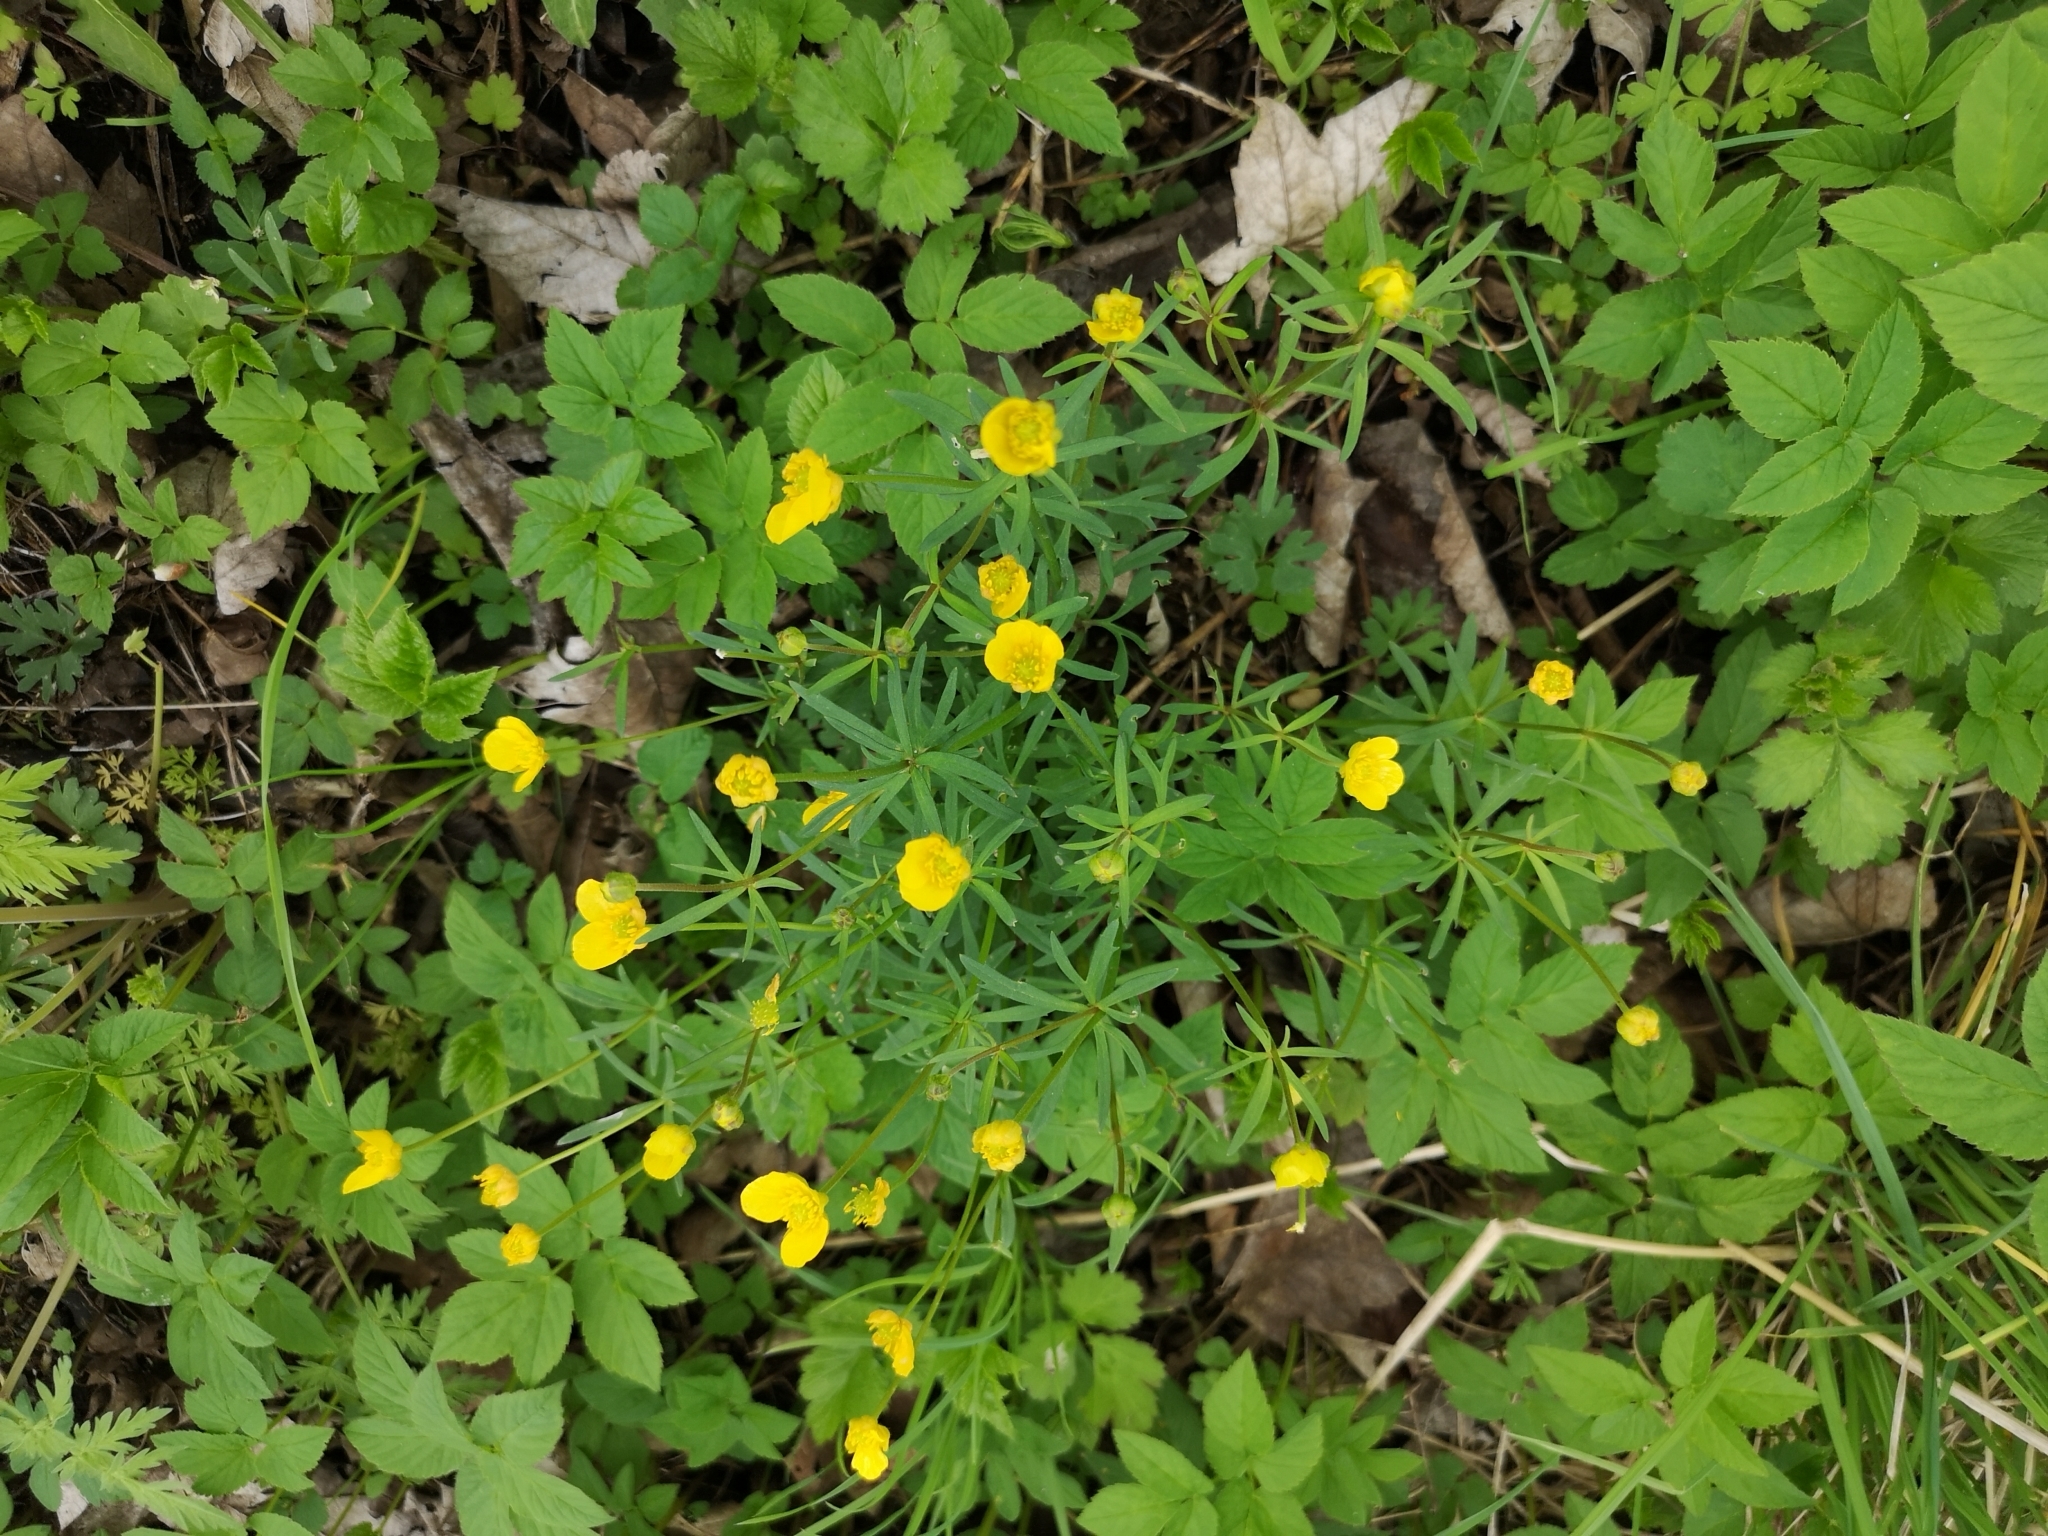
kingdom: Plantae
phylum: Tracheophyta
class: Magnoliopsida
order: Ranunculales
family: Ranunculaceae
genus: Ranunculus
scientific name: Ranunculus auricomus
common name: Goldilocks buttercup
